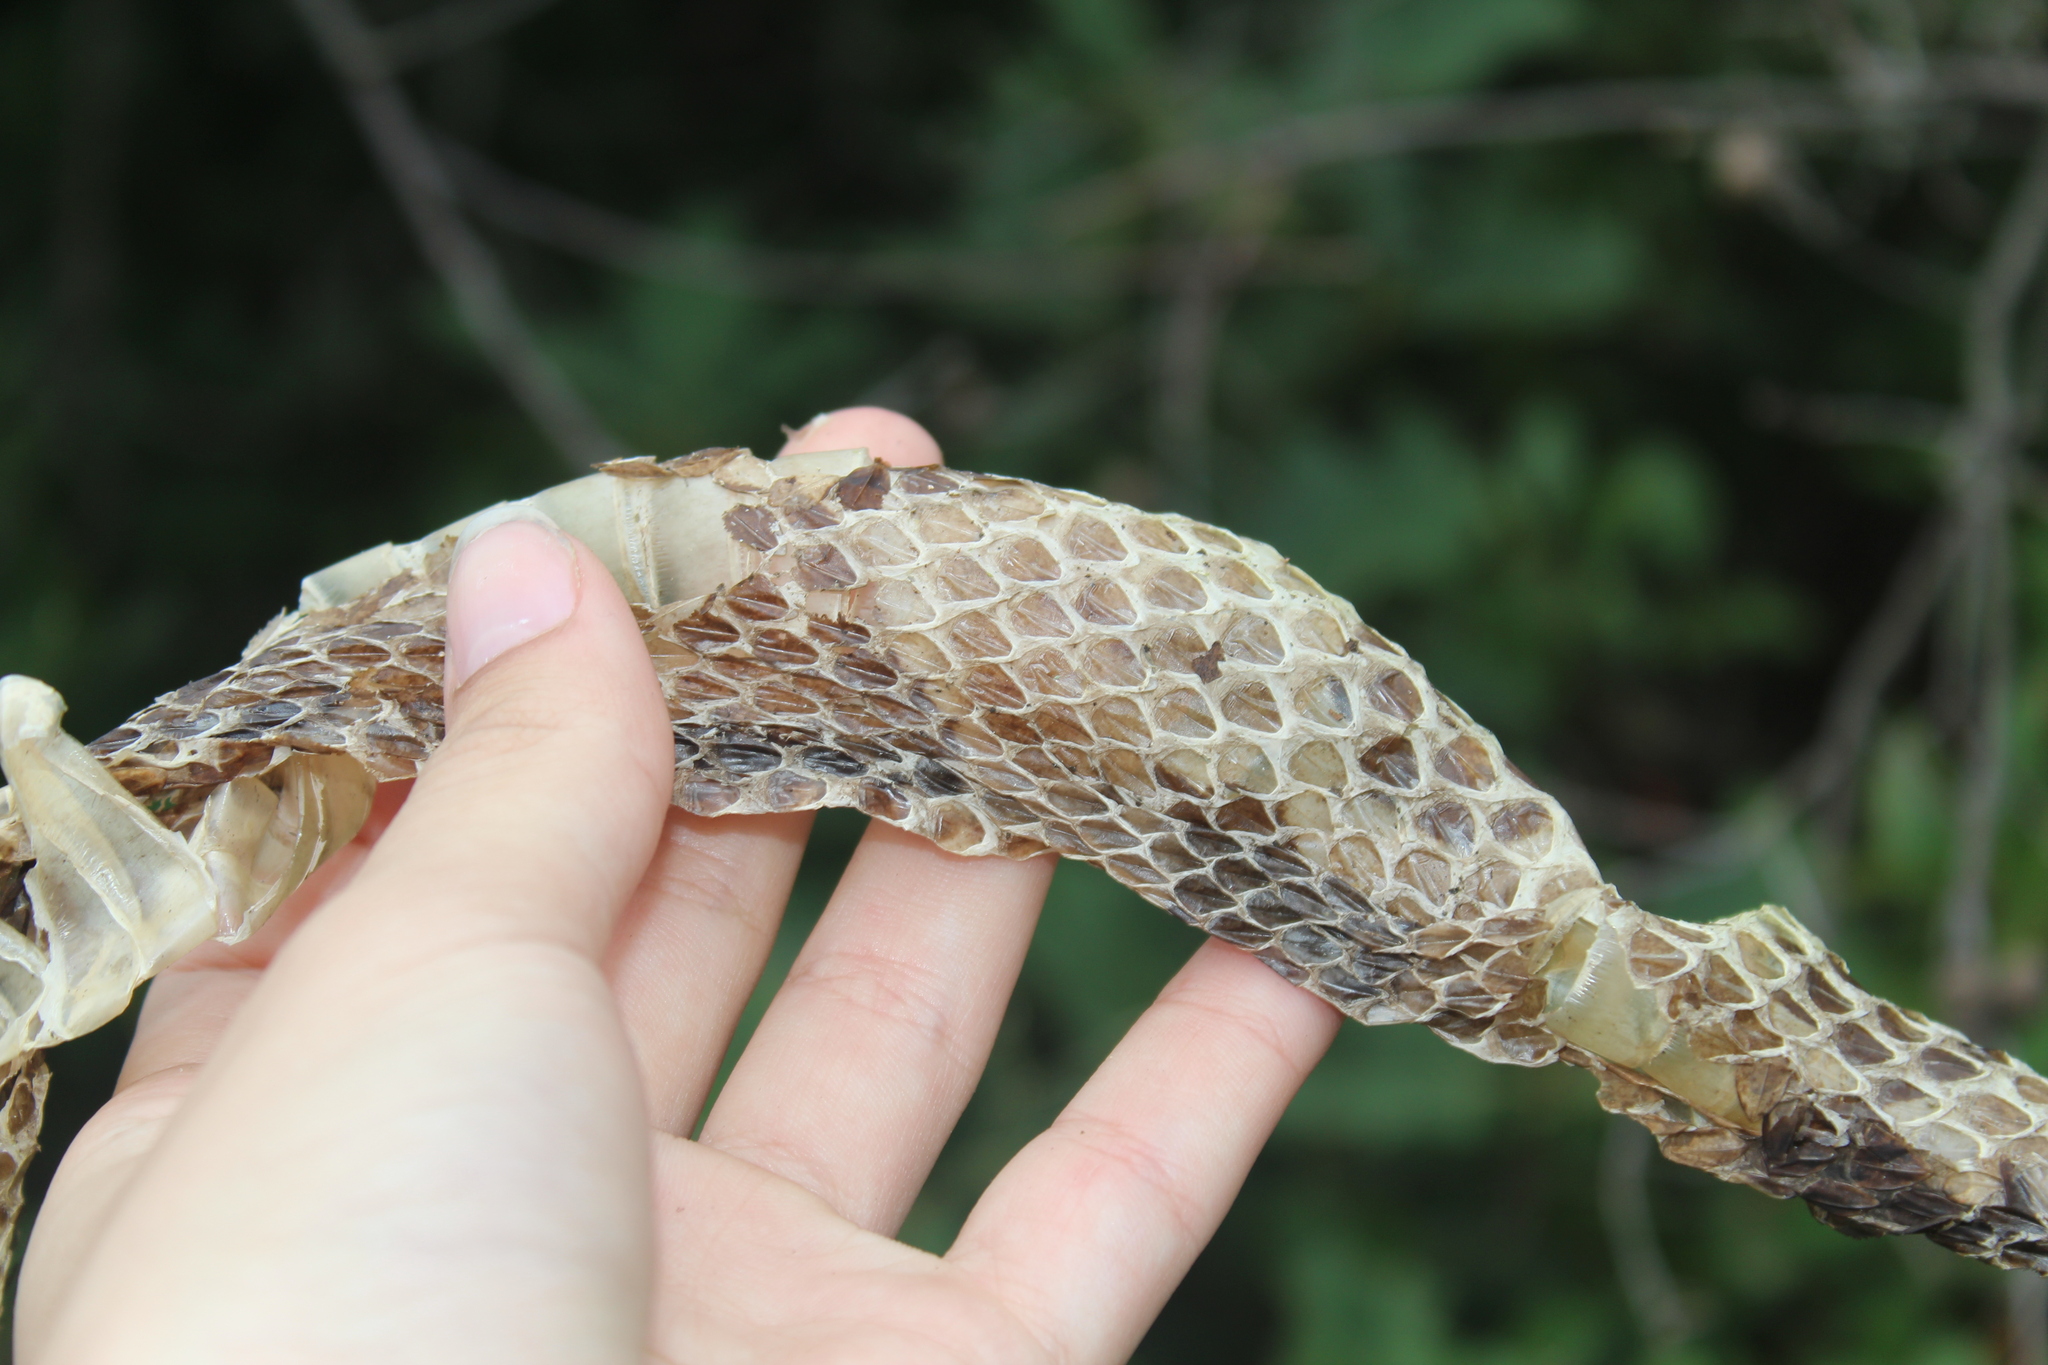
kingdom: Animalia
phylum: Chordata
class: Squamata
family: Viperidae
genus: Crotalus
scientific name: Crotalus horridus
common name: Timber rattlesnake
